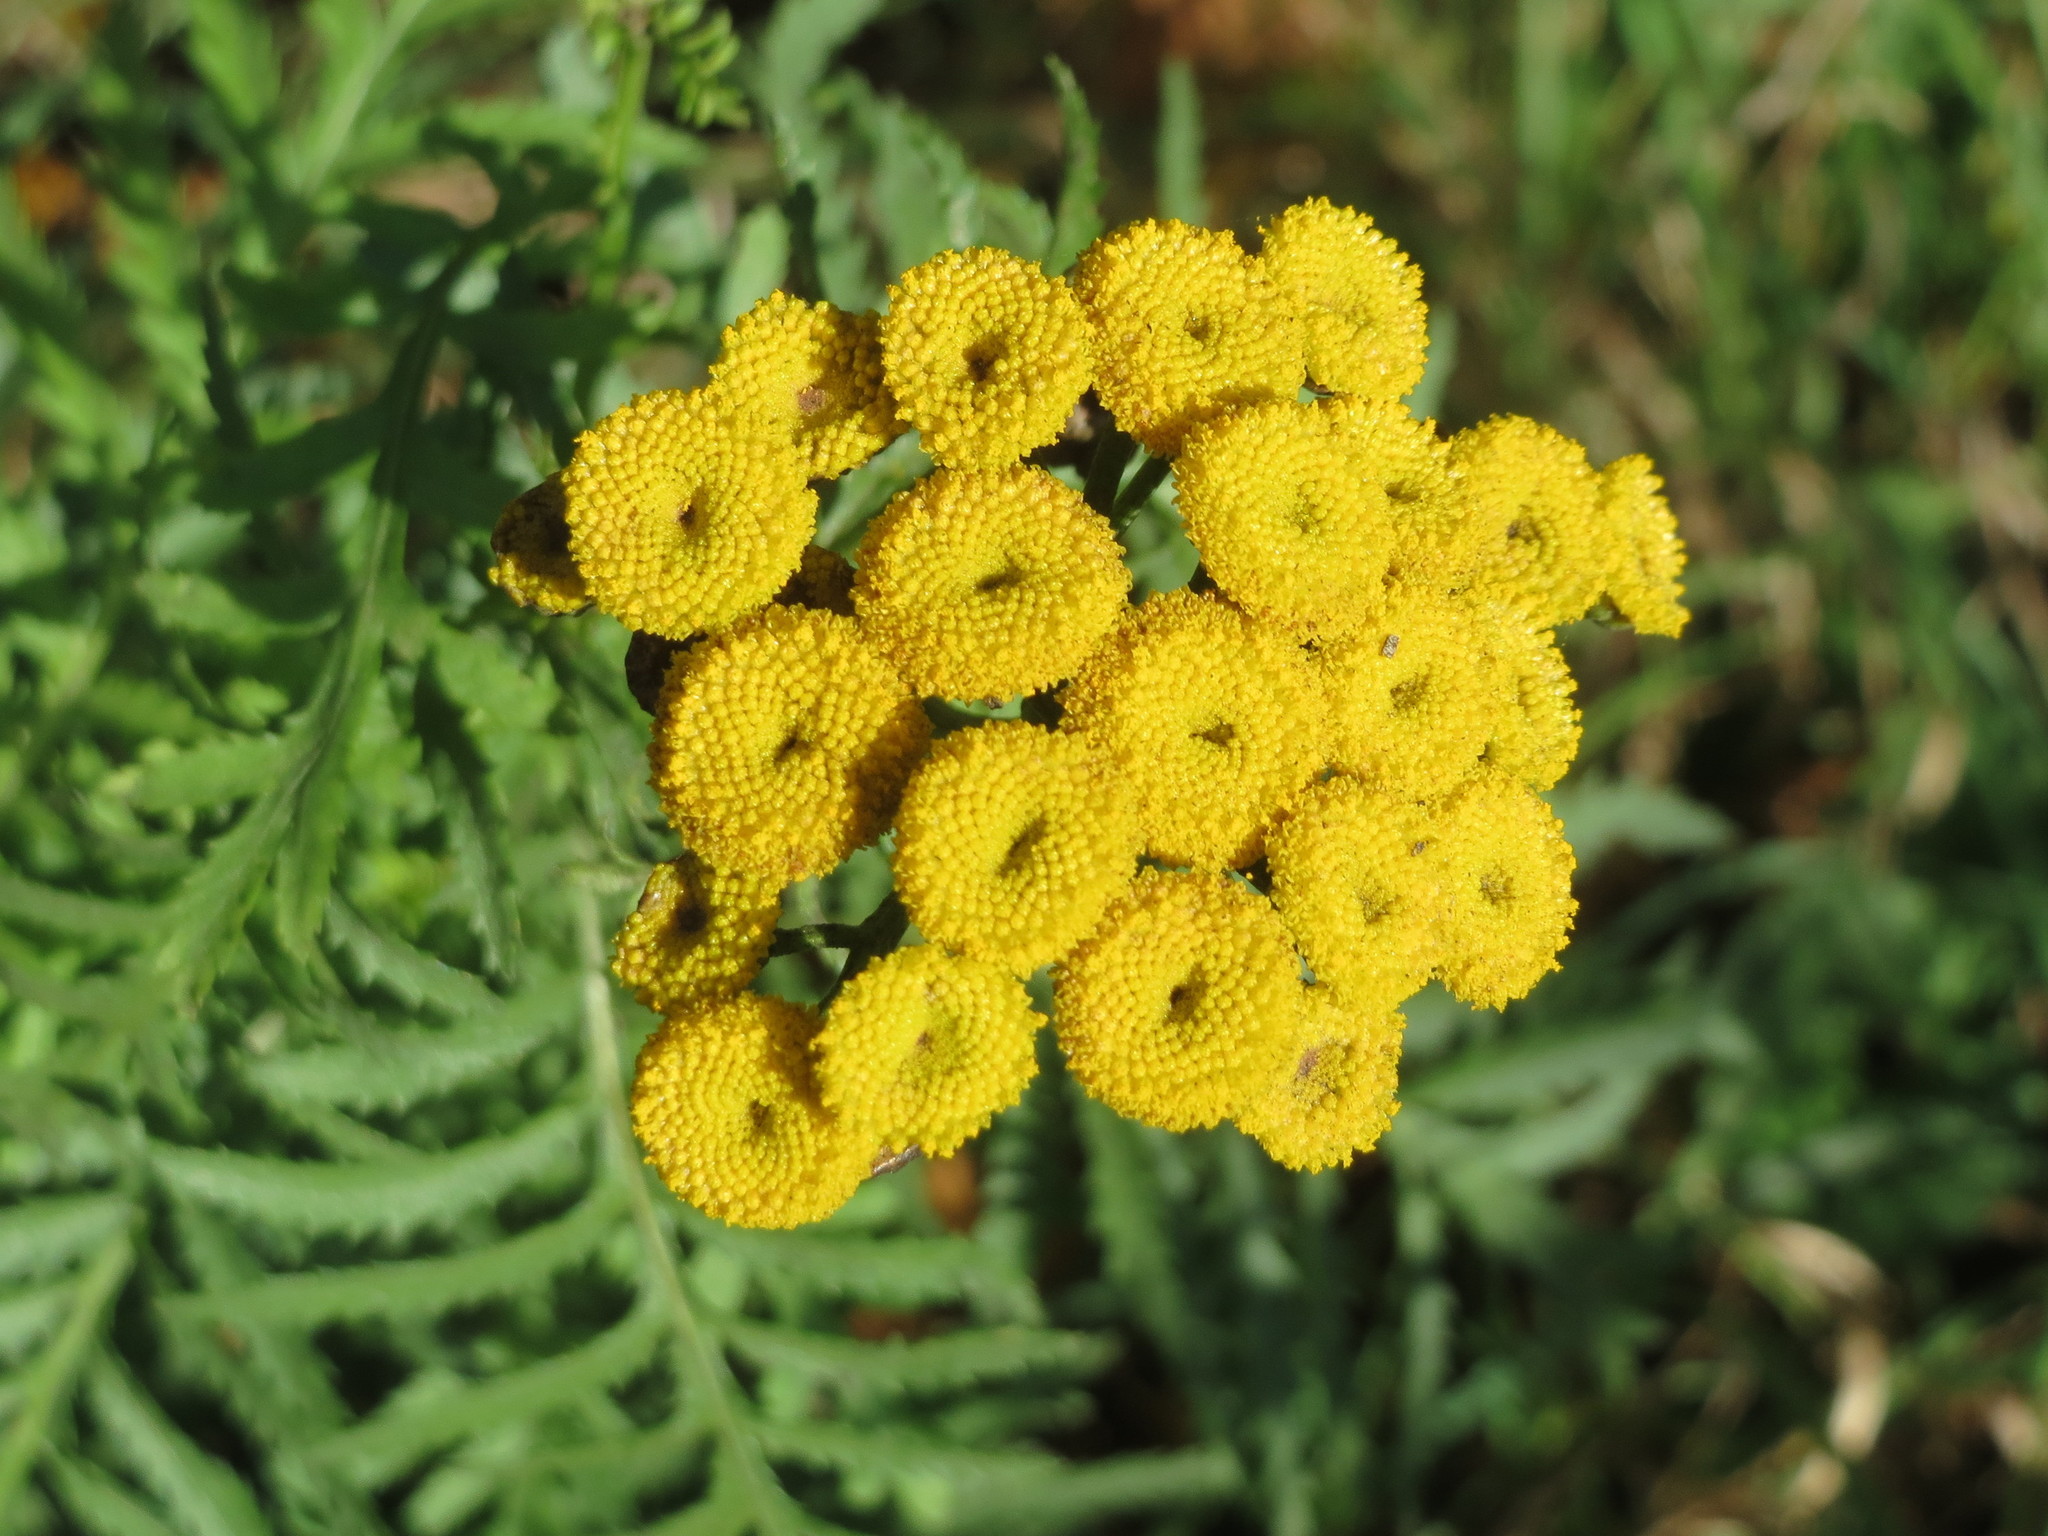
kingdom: Plantae
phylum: Tracheophyta
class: Magnoliopsida
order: Asterales
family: Asteraceae
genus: Tanacetum
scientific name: Tanacetum vulgare
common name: Common tansy
